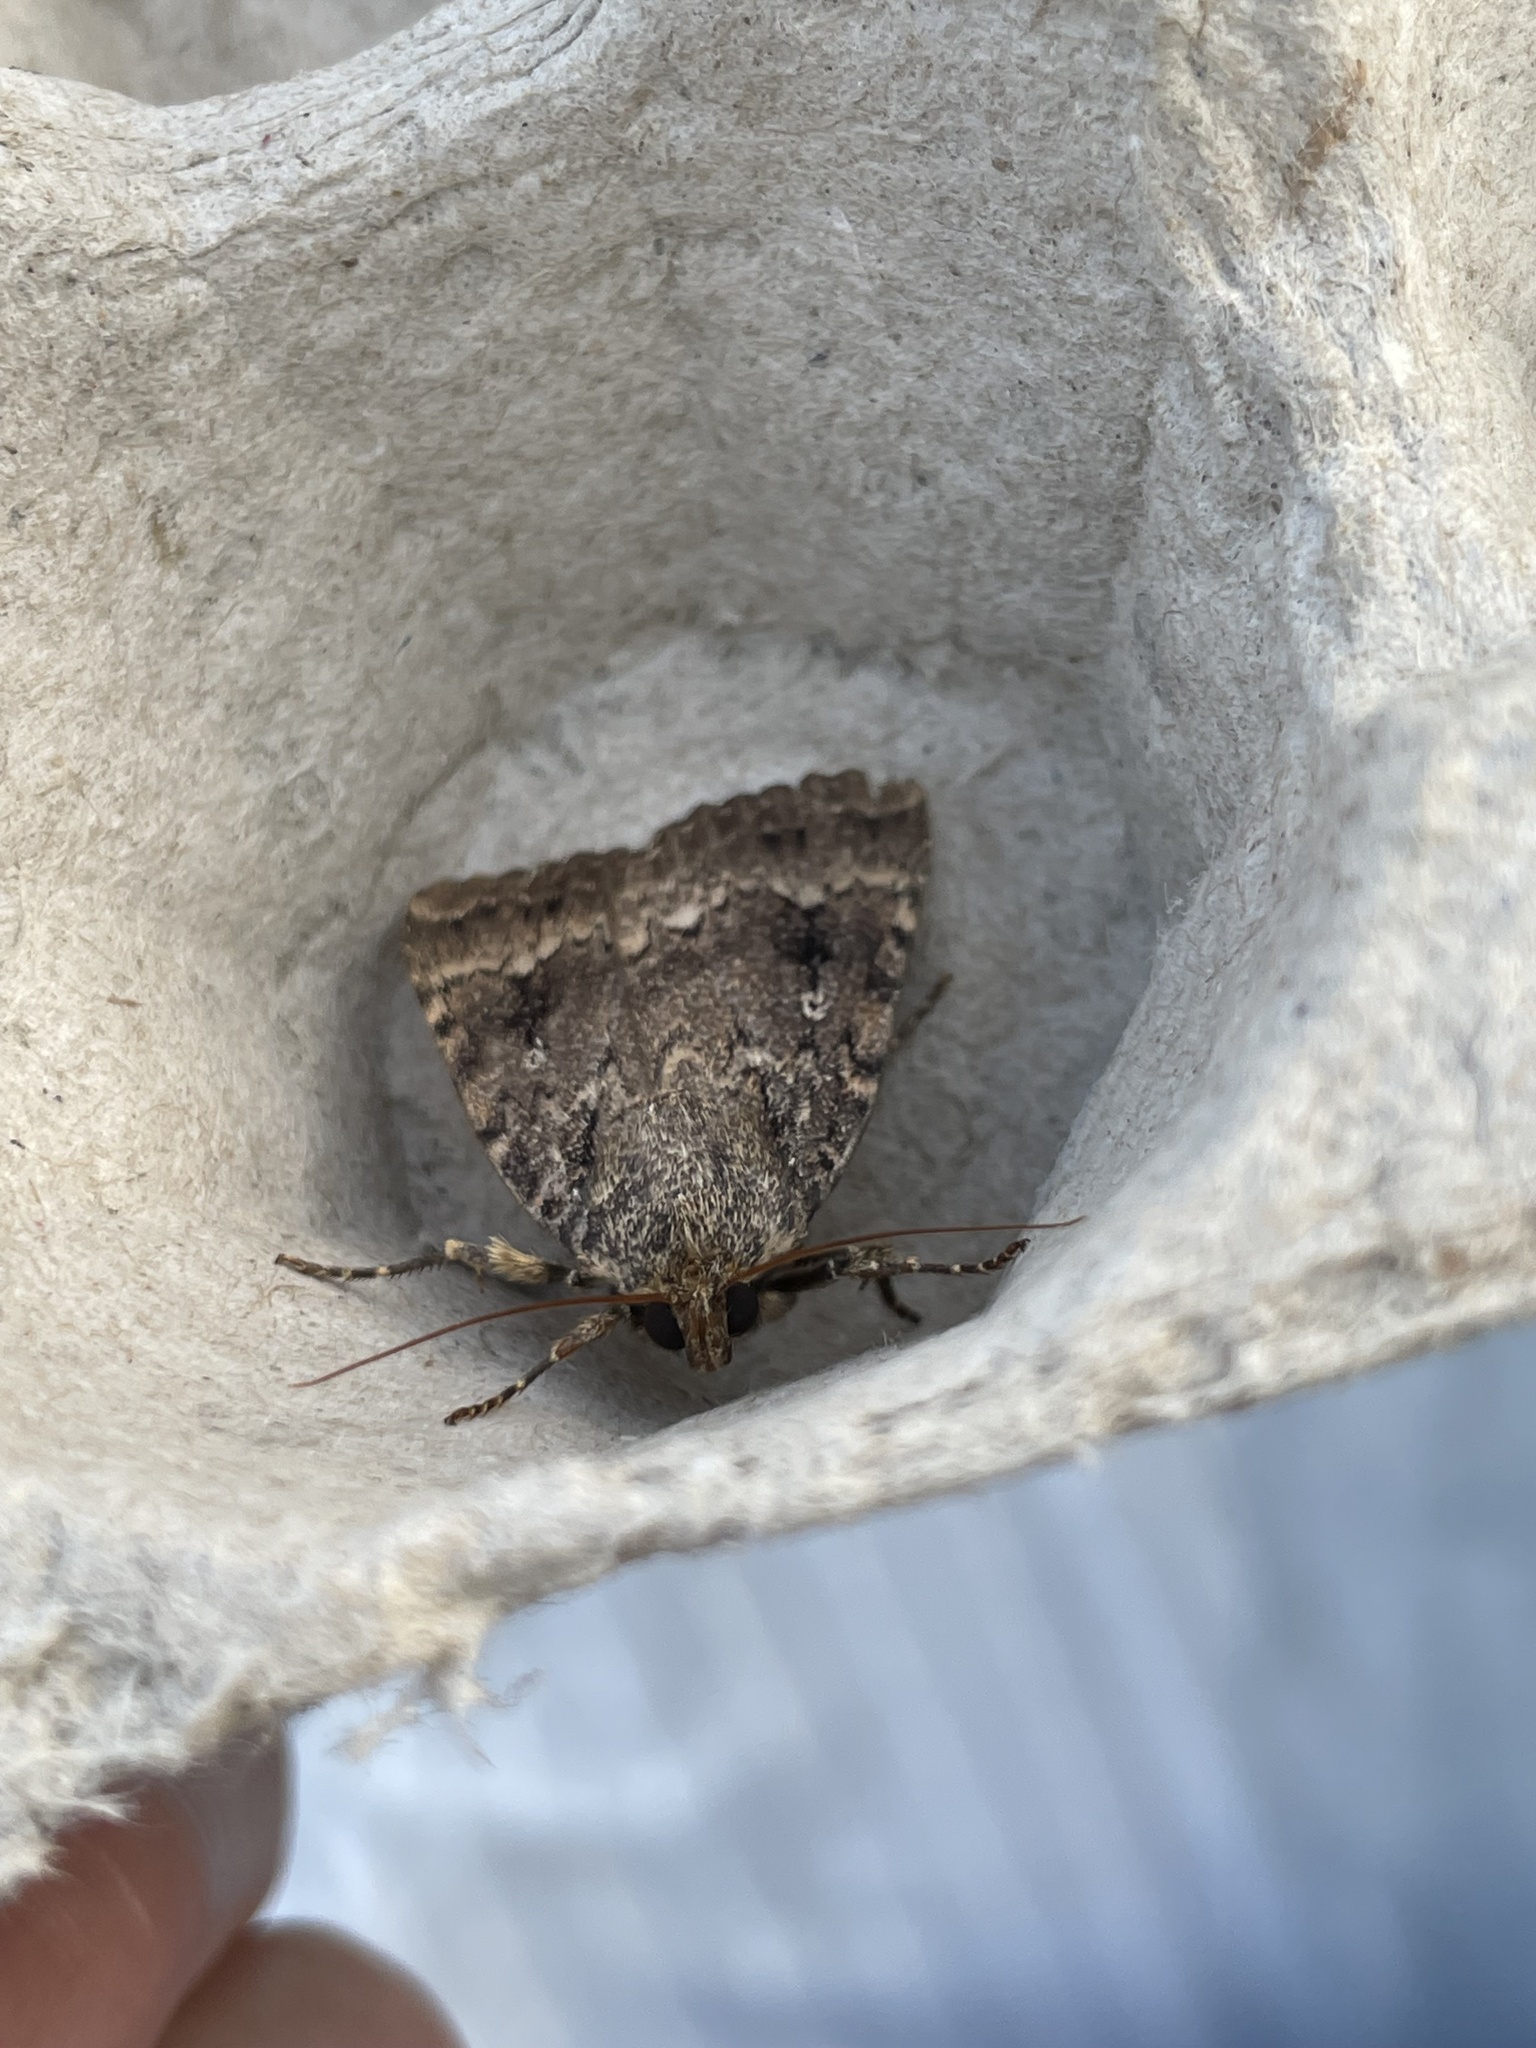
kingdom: Animalia
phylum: Arthropoda
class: Insecta
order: Lepidoptera
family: Noctuidae
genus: Amphipyra
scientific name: Amphipyra pyramidea
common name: Copper underwing
